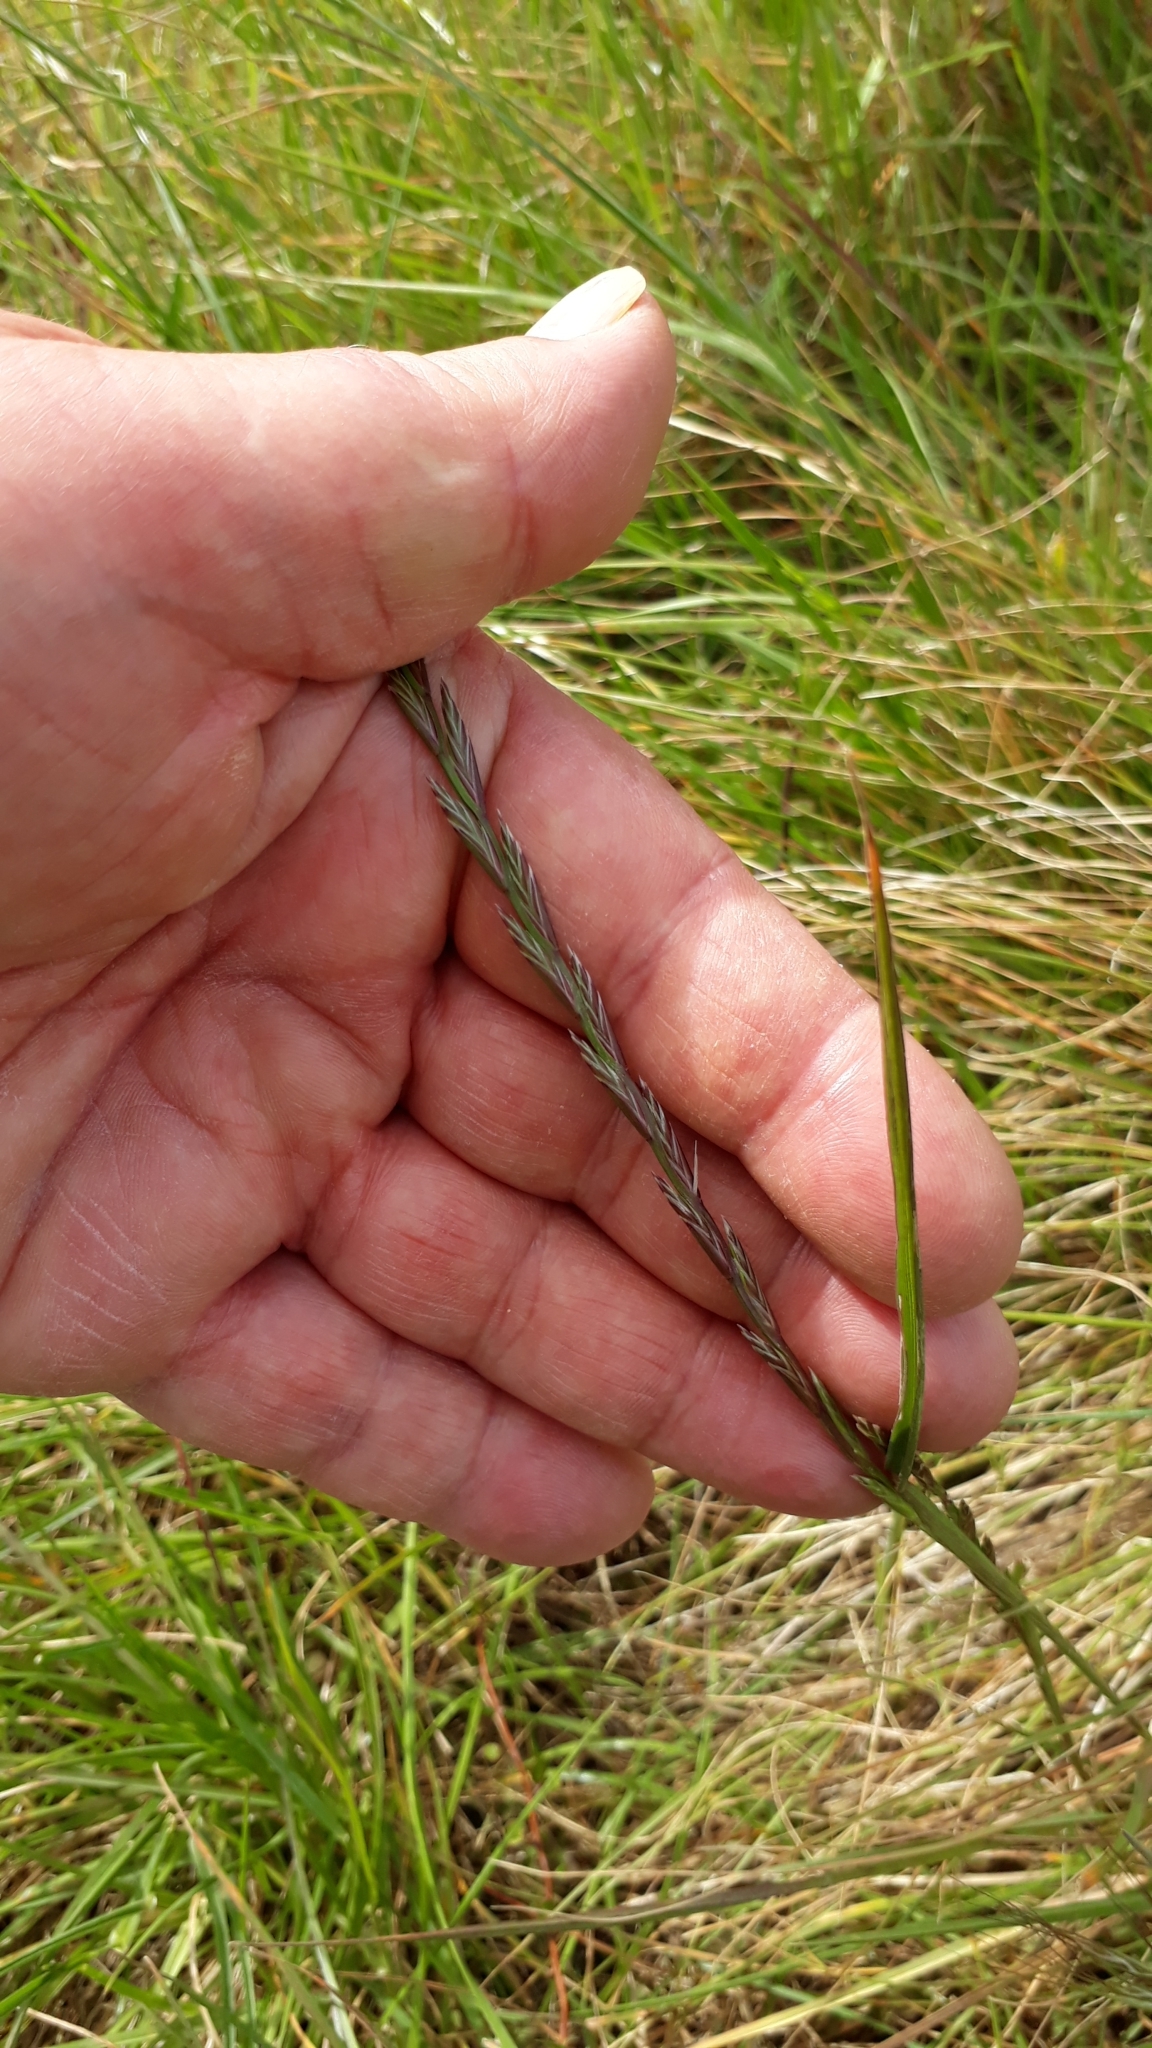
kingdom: Plantae
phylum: Tracheophyta
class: Liliopsida
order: Poales
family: Poaceae
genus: Lolium
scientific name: Lolium perenne
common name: Perennial ryegrass
